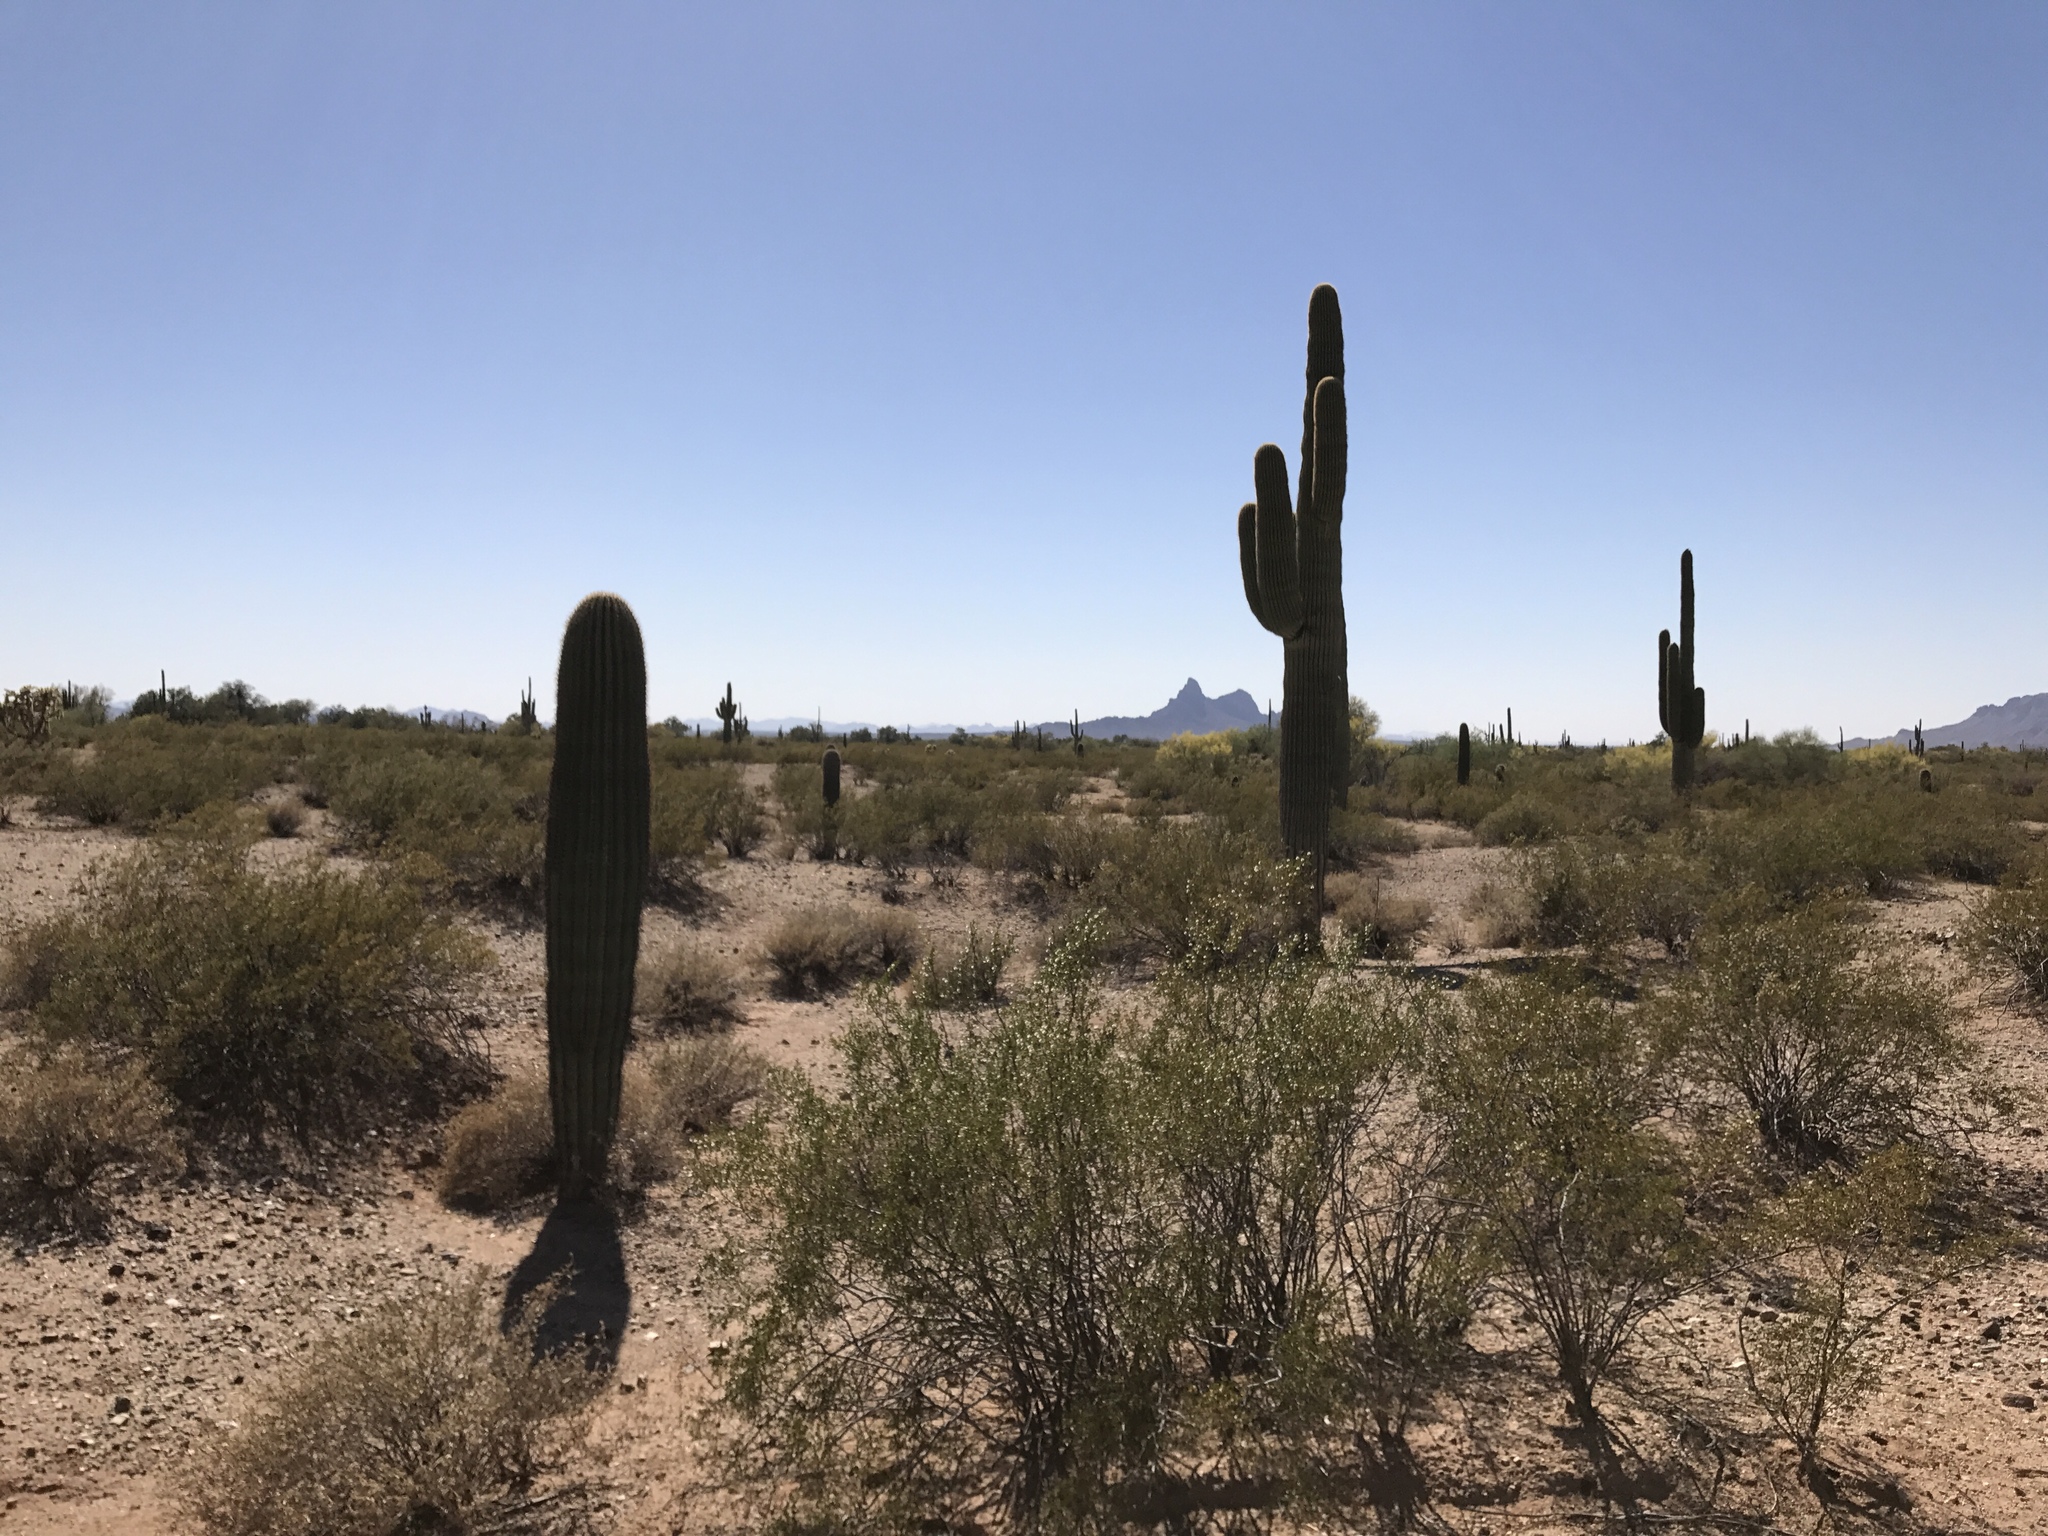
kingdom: Plantae
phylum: Tracheophyta
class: Magnoliopsida
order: Caryophyllales
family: Cactaceae
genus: Carnegiea
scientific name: Carnegiea gigantea
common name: Saguaro
